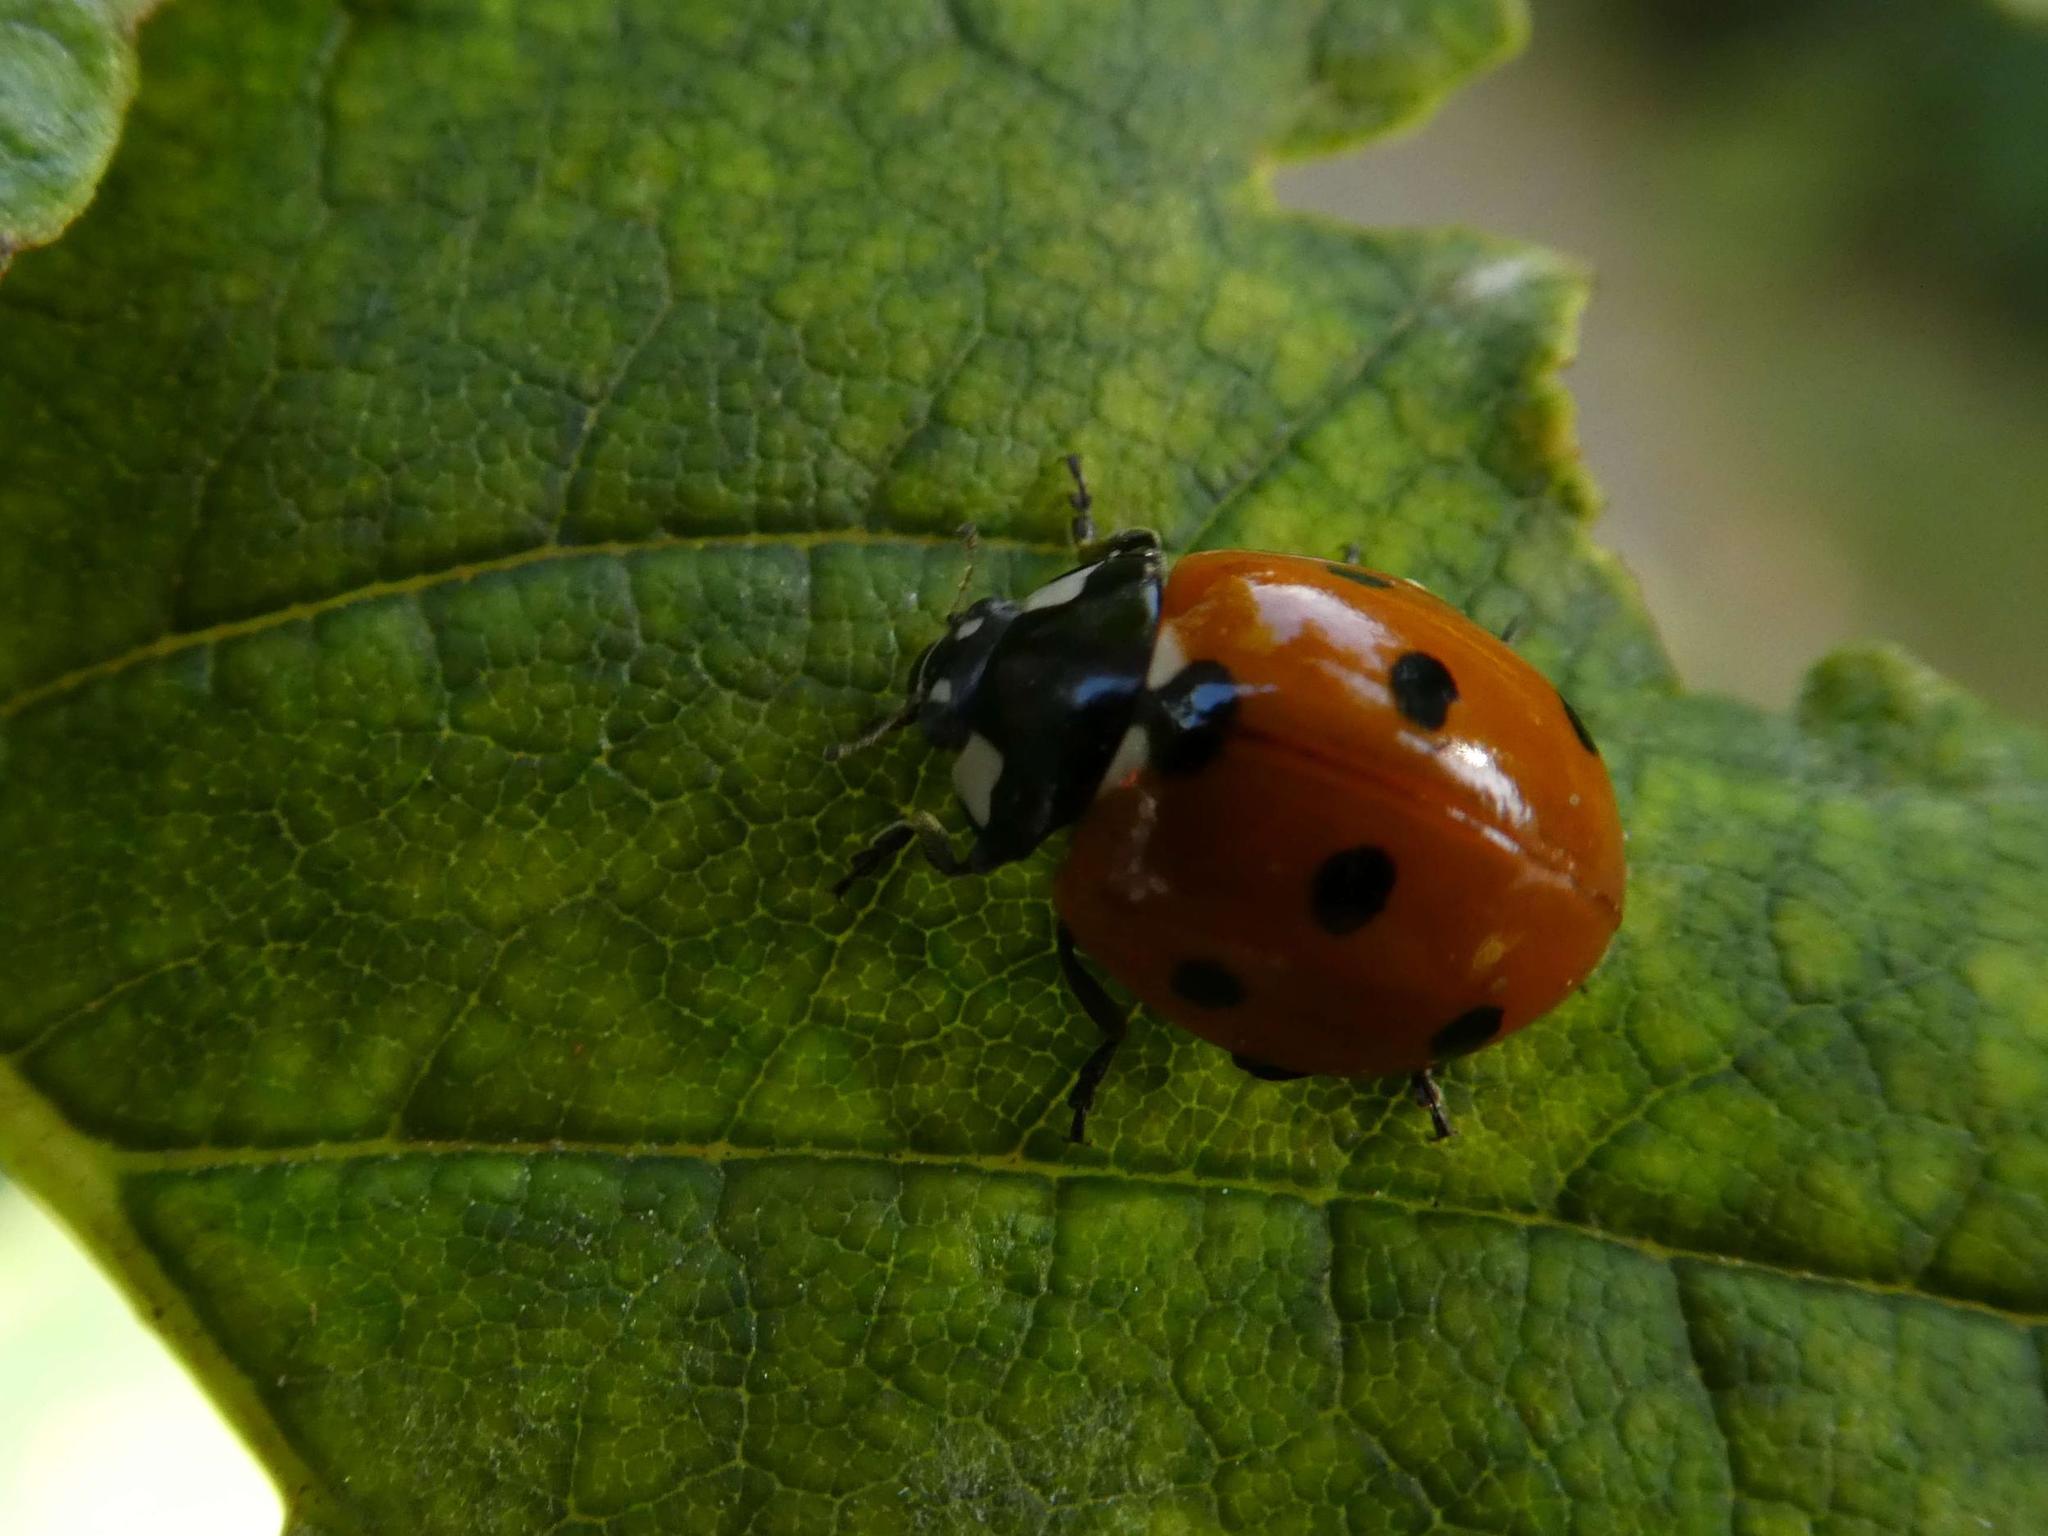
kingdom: Animalia
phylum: Arthropoda
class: Insecta
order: Coleoptera
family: Coccinellidae
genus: Coccinella
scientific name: Coccinella septempunctata
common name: Sevenspotted lady beetle
